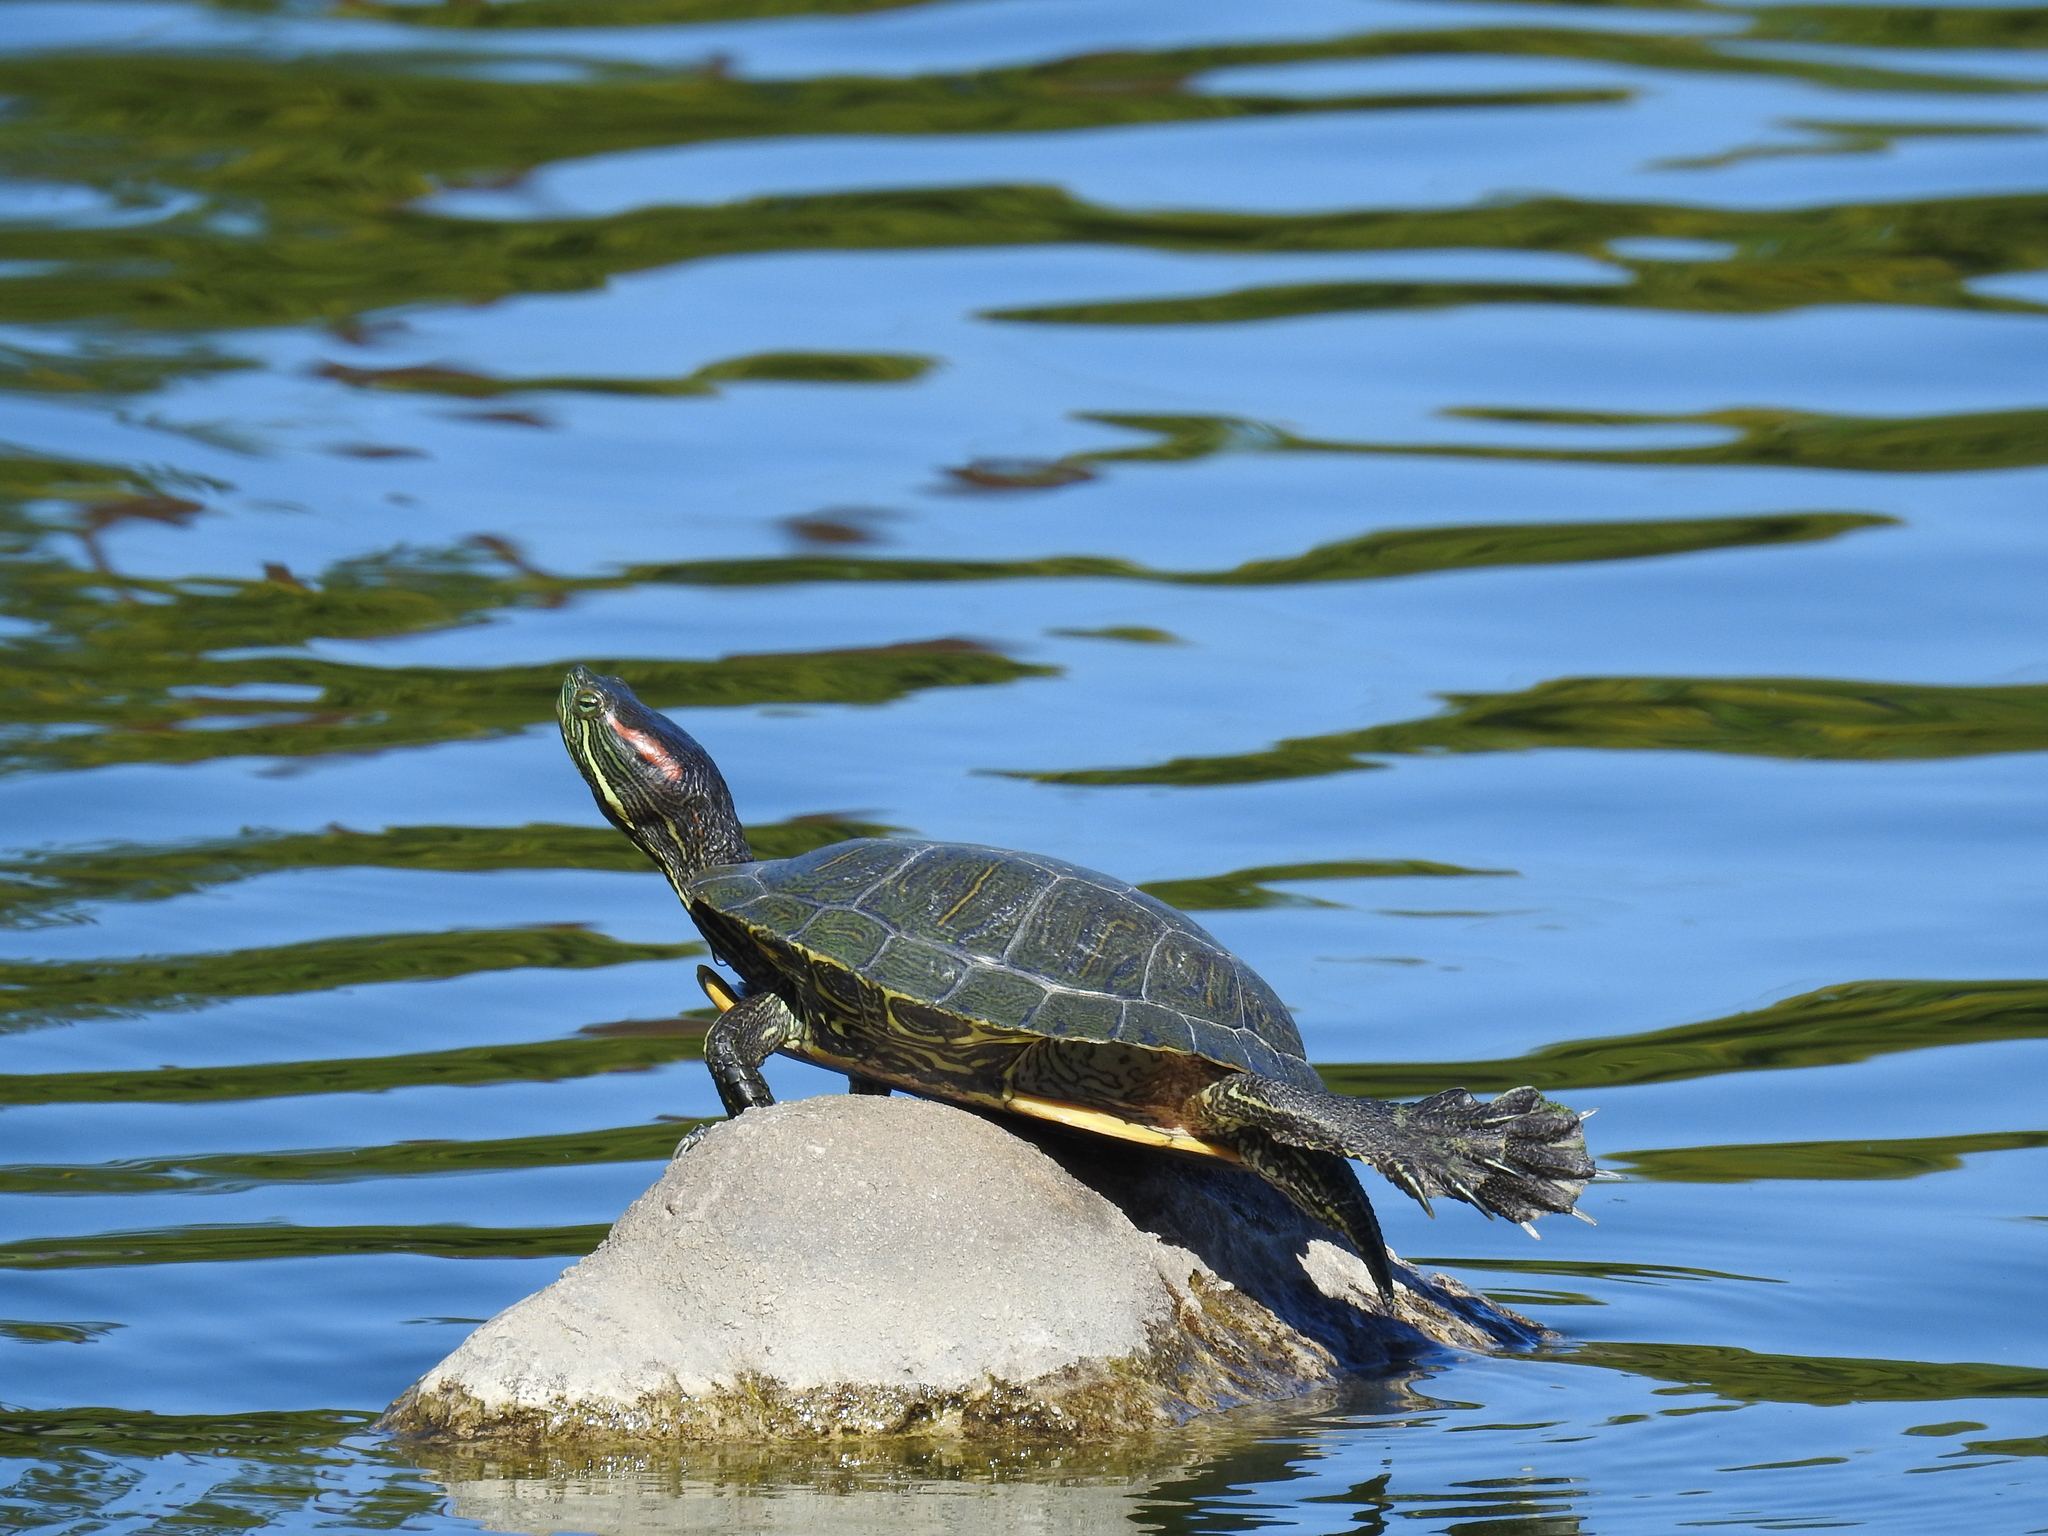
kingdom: Animalia
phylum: Chordata
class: Testudines
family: Emydidae
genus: Trachemys
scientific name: Trachemys scripta
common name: Slider
